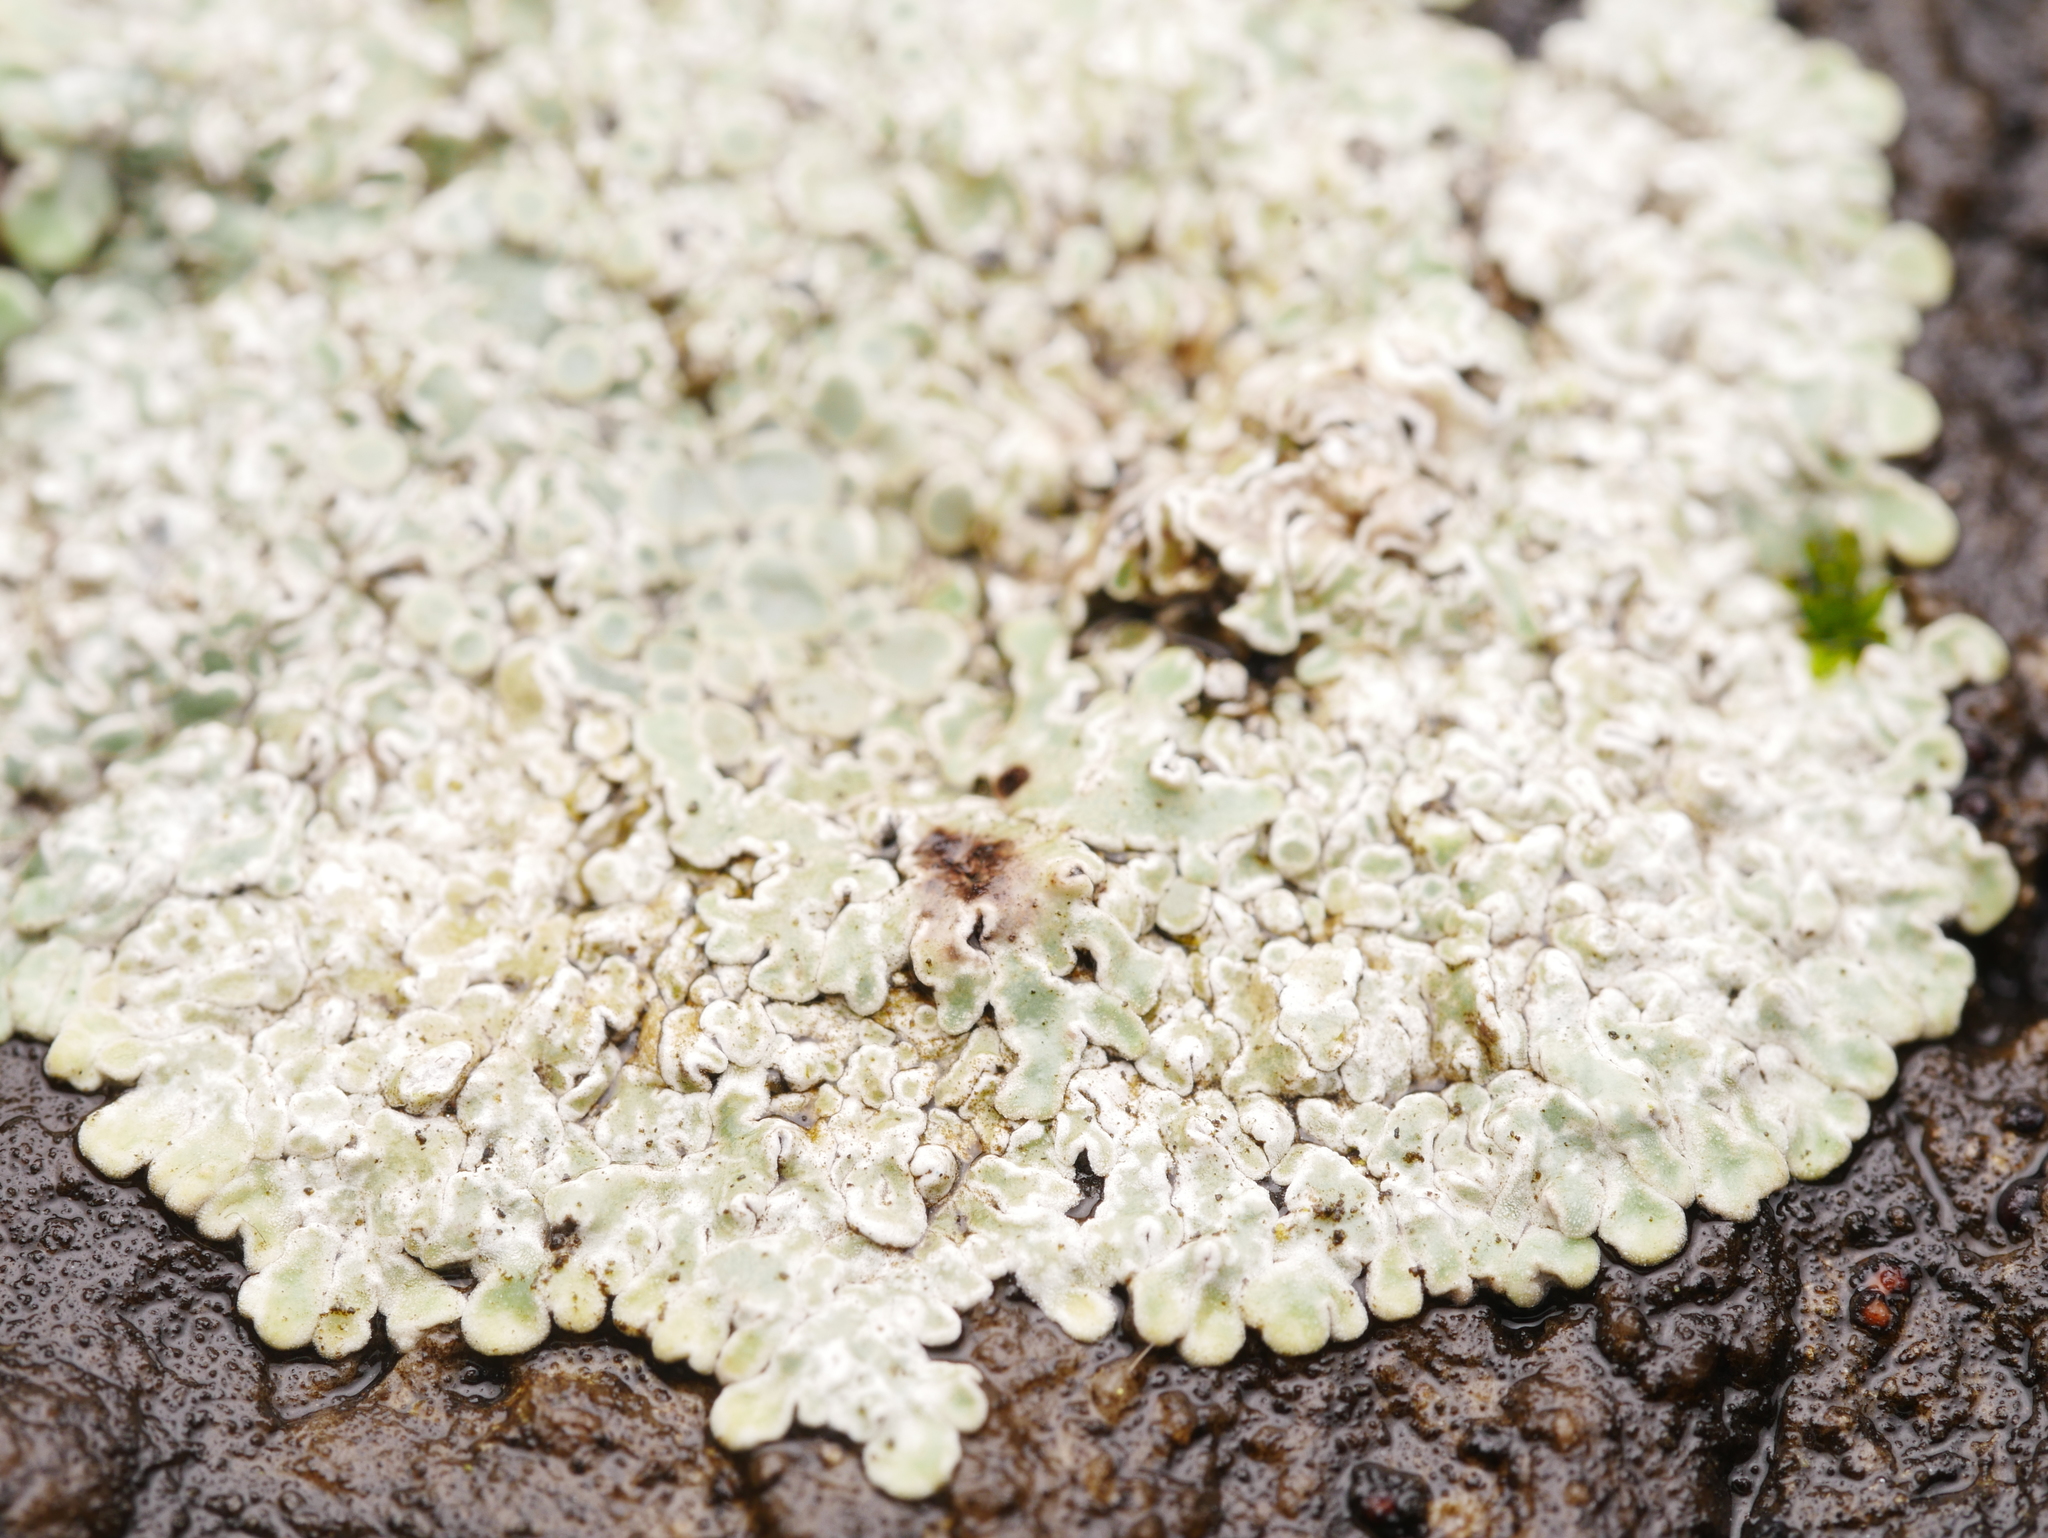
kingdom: Fungi
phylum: Ascomycota
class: Lecanoromycetes
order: Lecanorales
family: Lecanoraceae
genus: Protoparmeliopsis
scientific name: Protoparmeliopsis muralis
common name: Stonewall rim lichen
